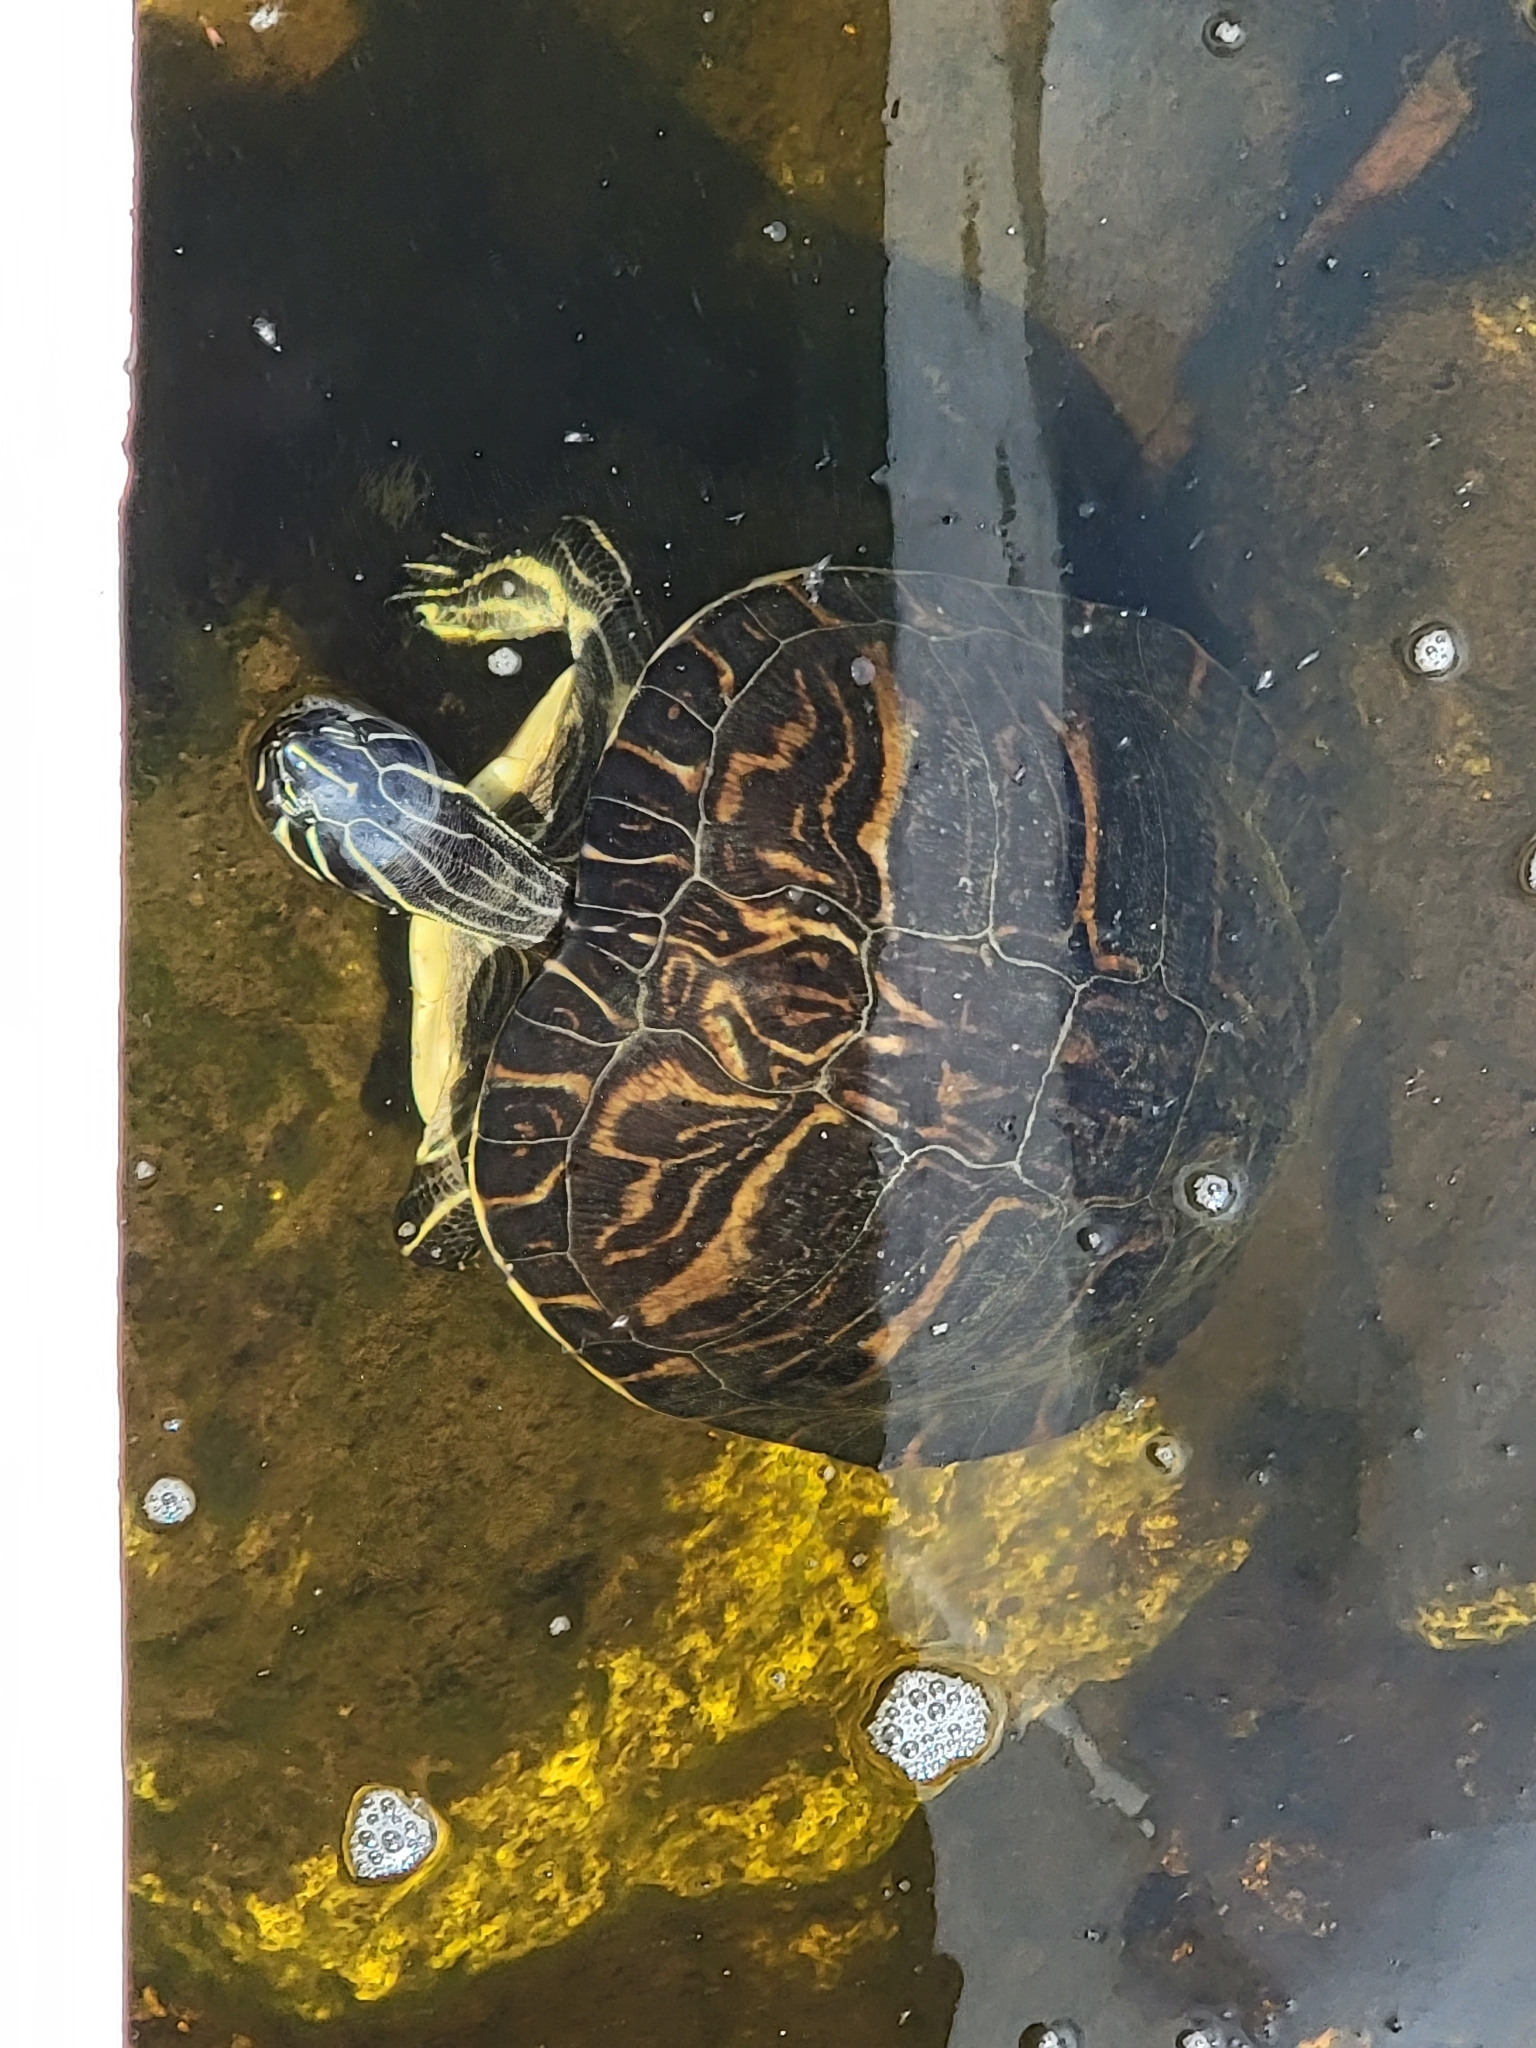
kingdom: Animalia
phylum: Chordata
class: Testudines
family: Emydidae
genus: Pseudemys
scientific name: Pseudemys peninsularis
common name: Peninsula cooter
